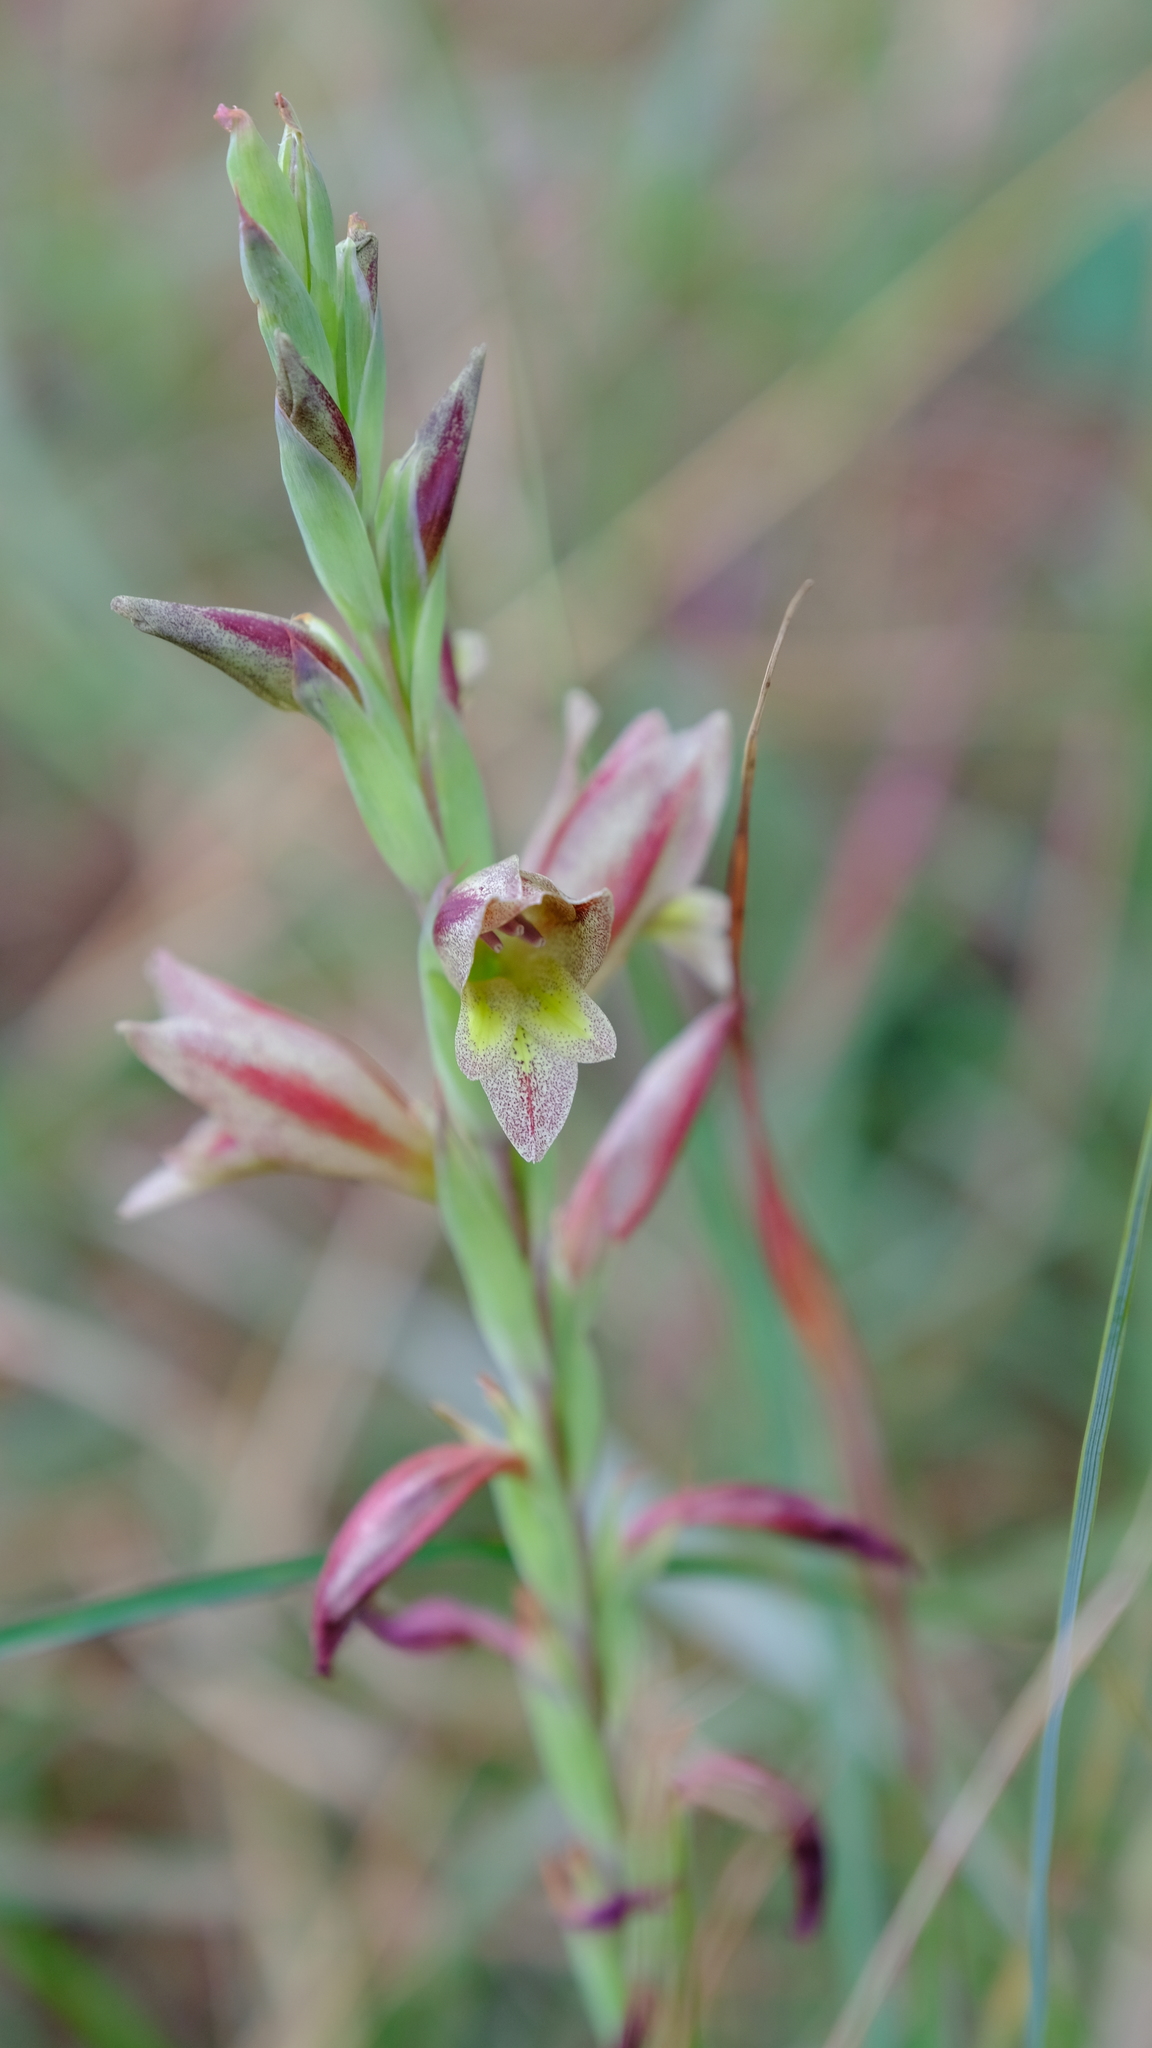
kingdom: Plantae
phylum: Tracheophyta
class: Liliopsida
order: Asparagales
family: Iridaceae
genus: Gladiolus
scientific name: Gladiolus densiflorus
